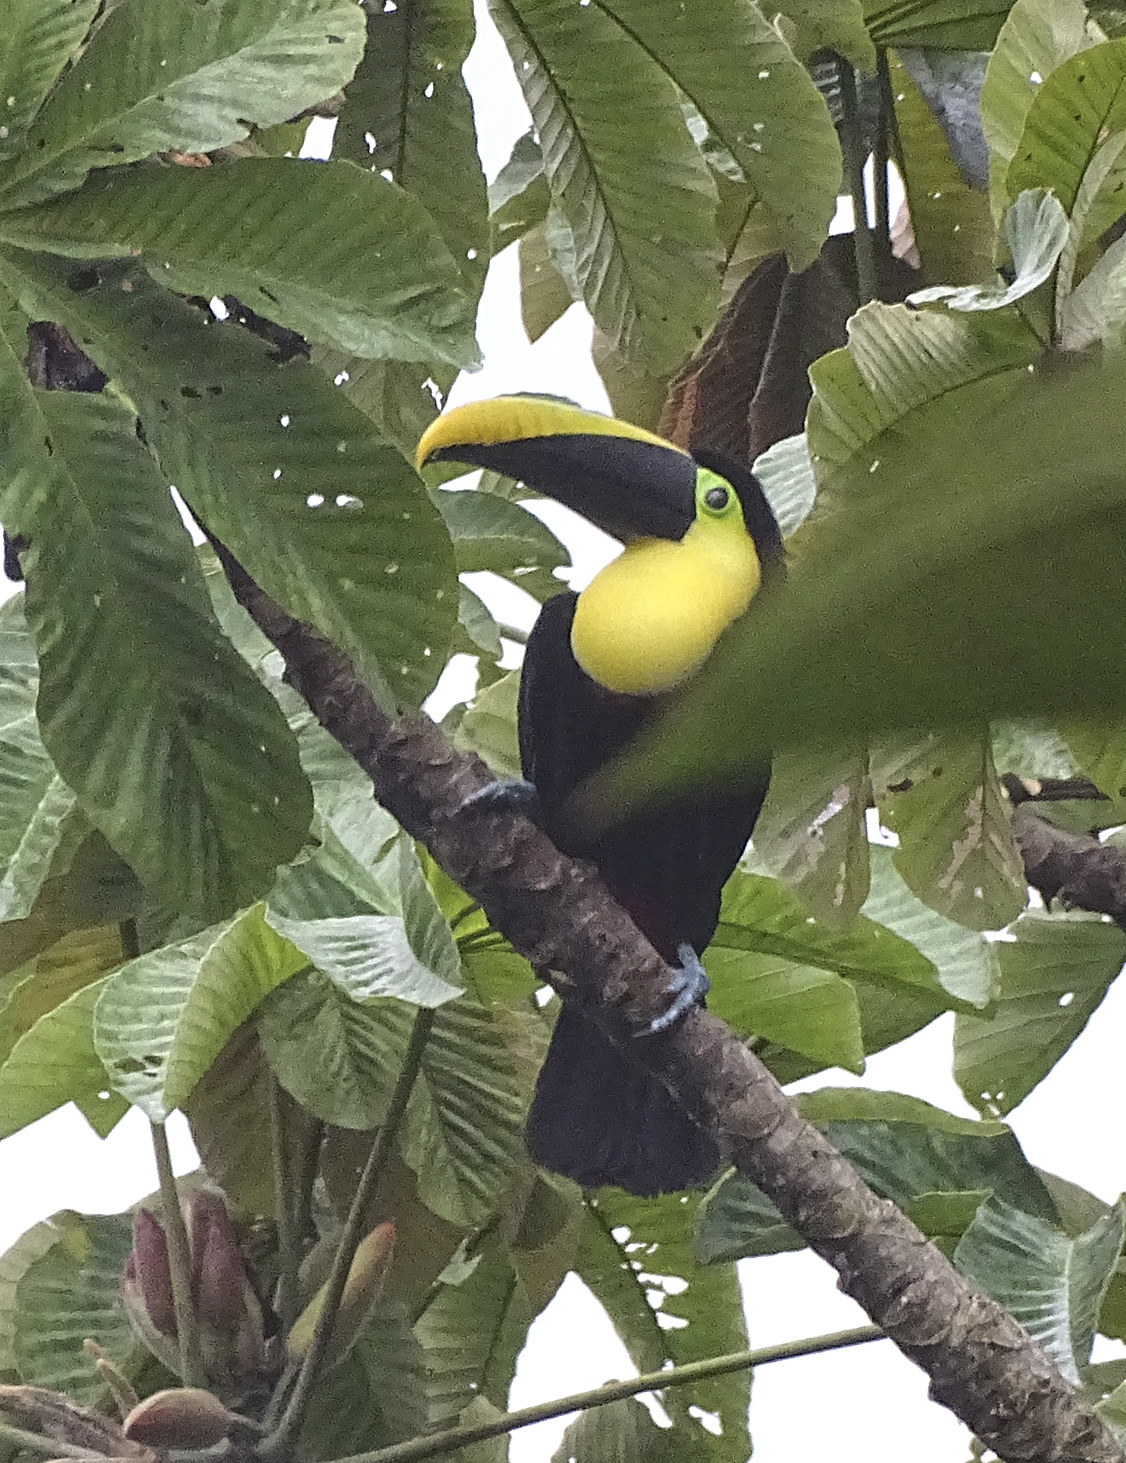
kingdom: Animalia
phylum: Chordata
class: Aves
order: Piciformes
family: Ramphastidae
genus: Ramphastos
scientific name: Ramphastos ambiguus
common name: Yellow-throated toucan
